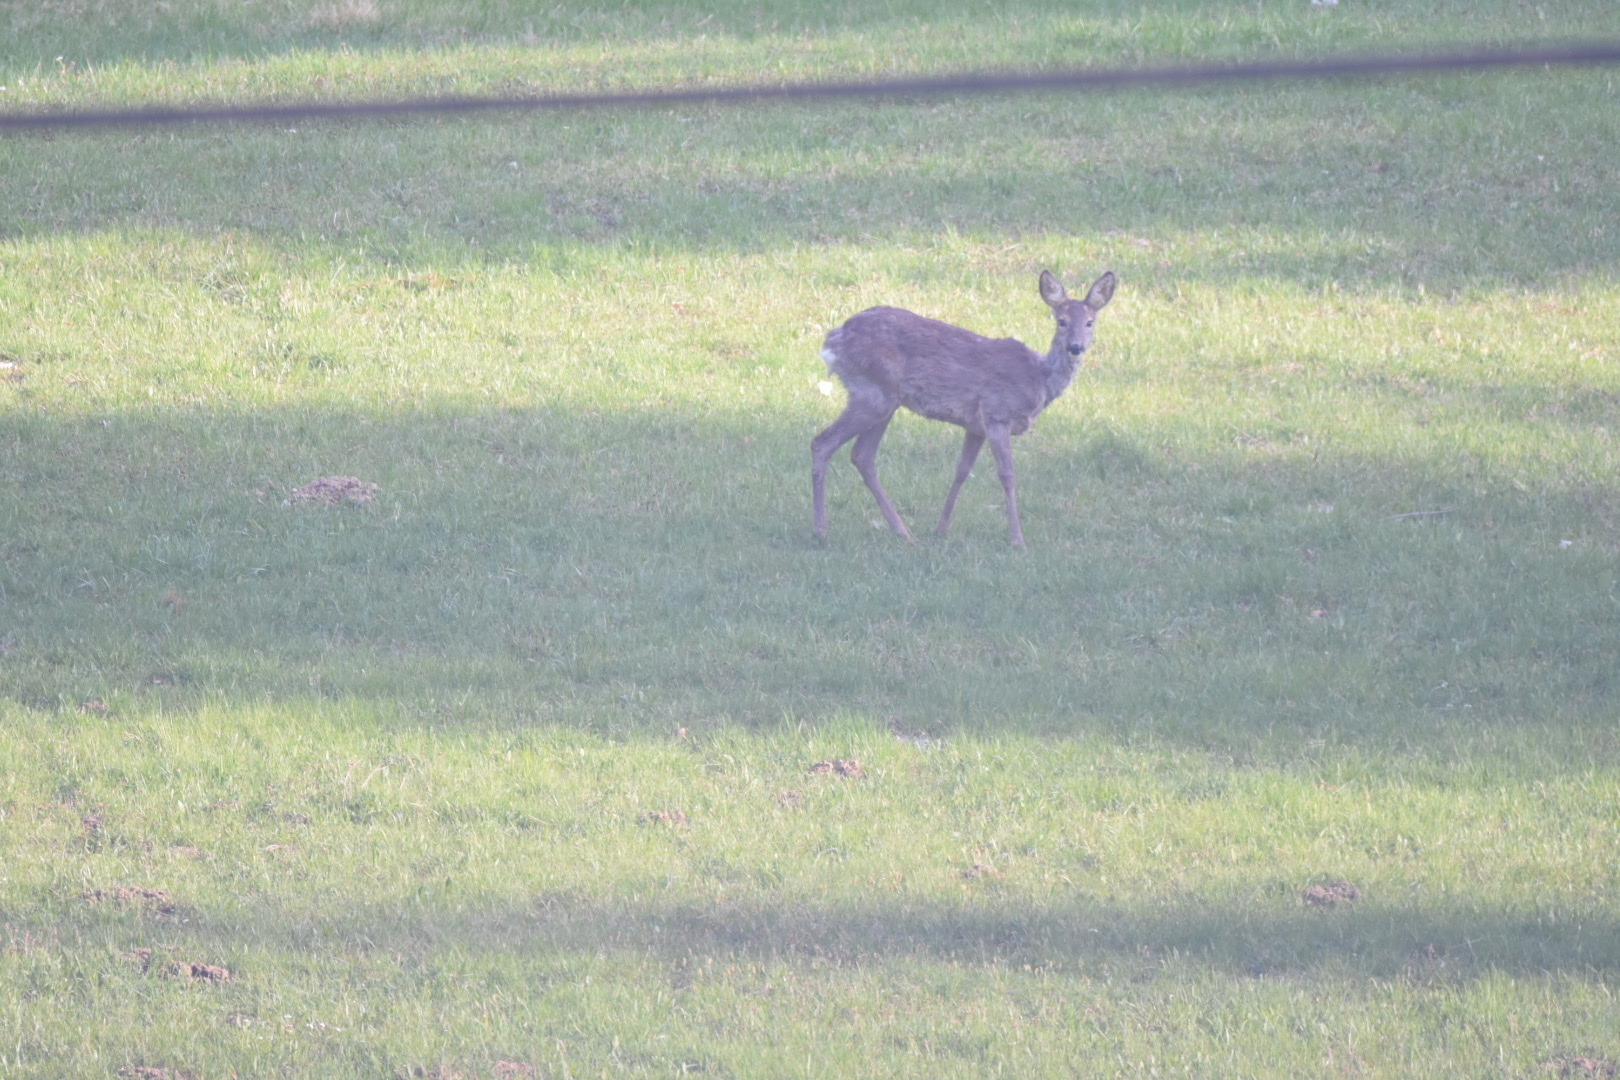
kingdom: Animalia
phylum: Chordata
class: Mammalia
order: Artiodactyla
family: Cervidae
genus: Capreolus
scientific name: Capreolus capreolus
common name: Western roe deer
